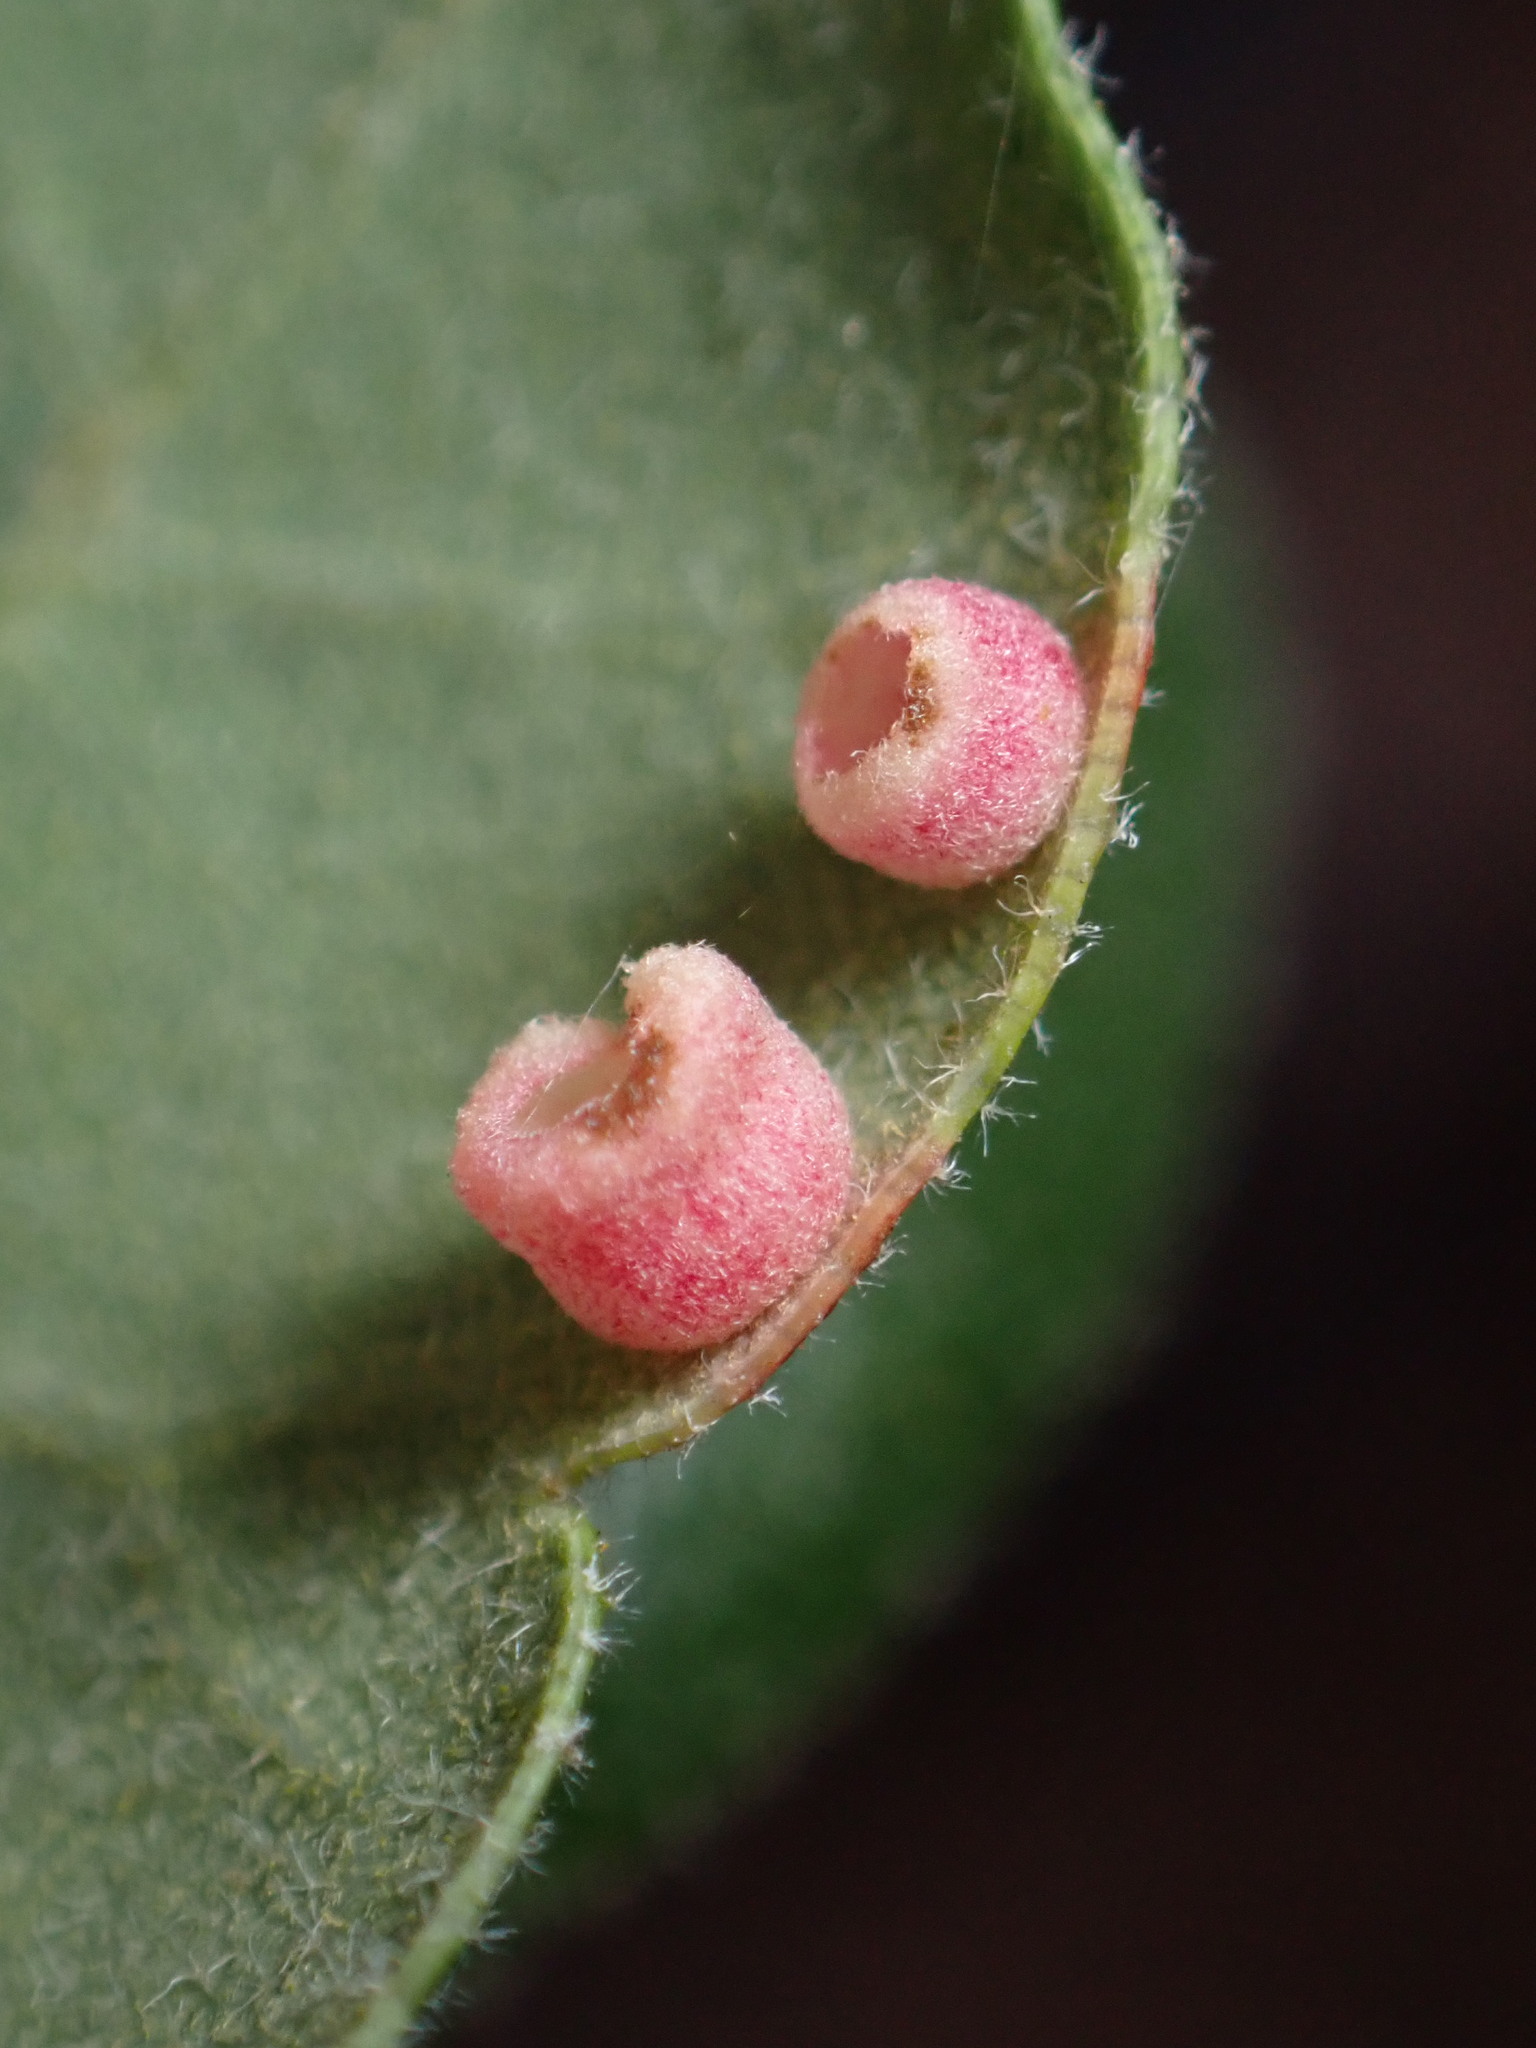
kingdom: Animalia
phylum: Arthropoda
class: Insecta
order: Hymenoptera
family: Cynipidae
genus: Phylloteras
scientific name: Phylloteras
